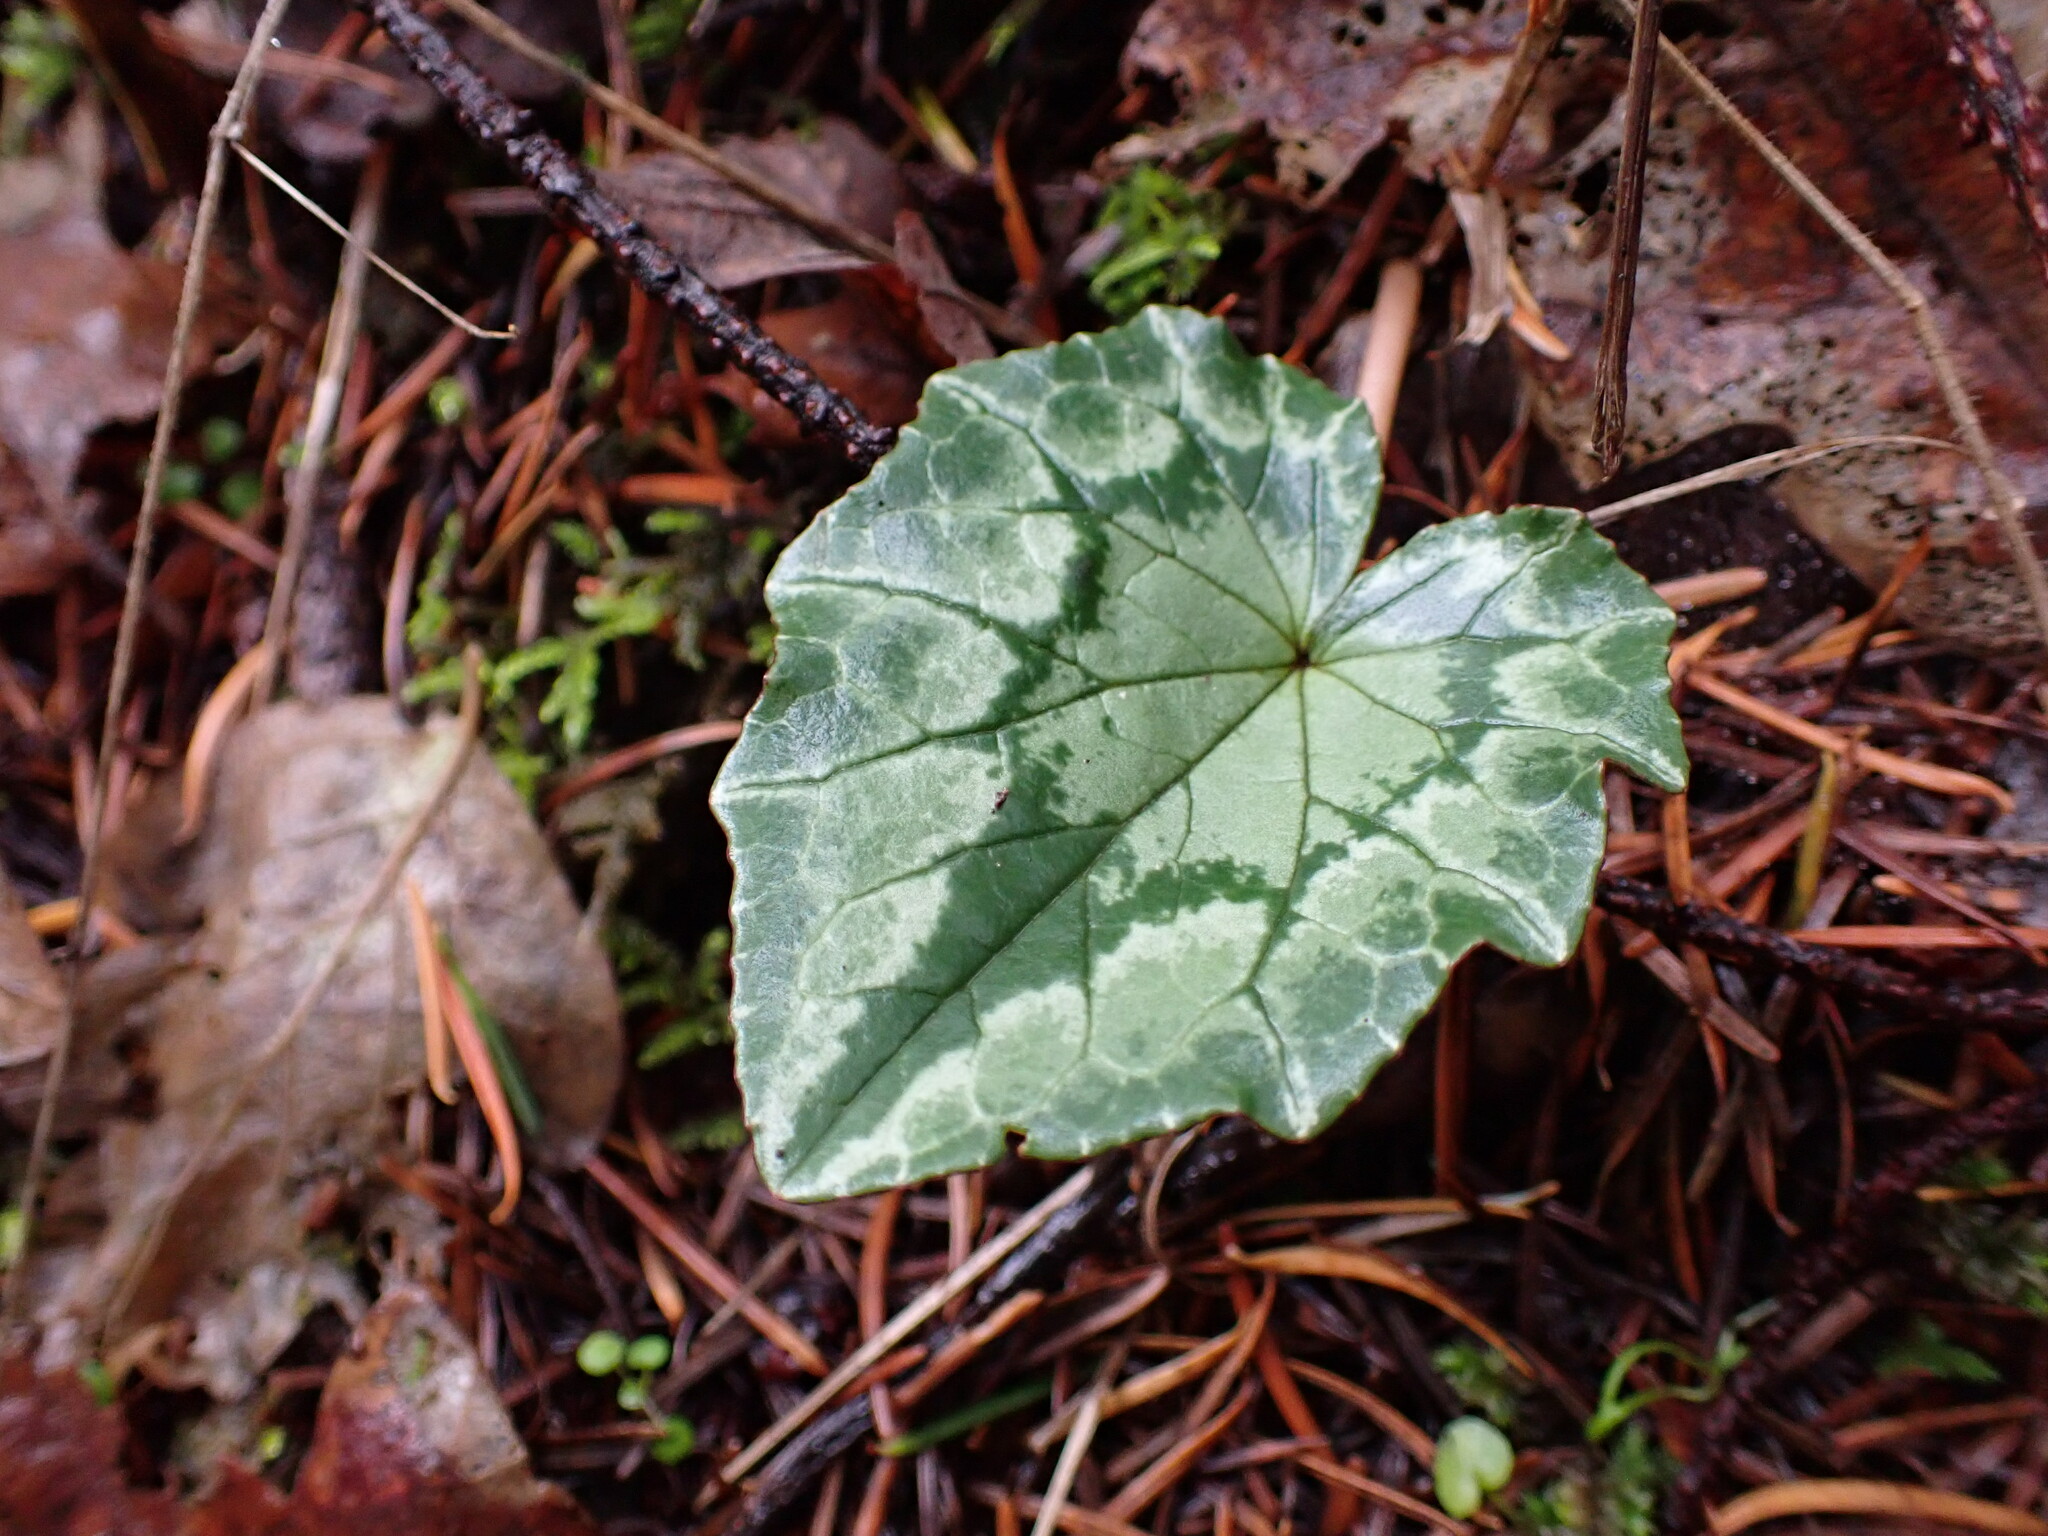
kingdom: Plantae
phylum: Tracheophyta
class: Magnoliopsida
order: Ericales
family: Primulaceae
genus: Cyclamen
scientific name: Cyclamen hederifolium
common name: Sowbread
